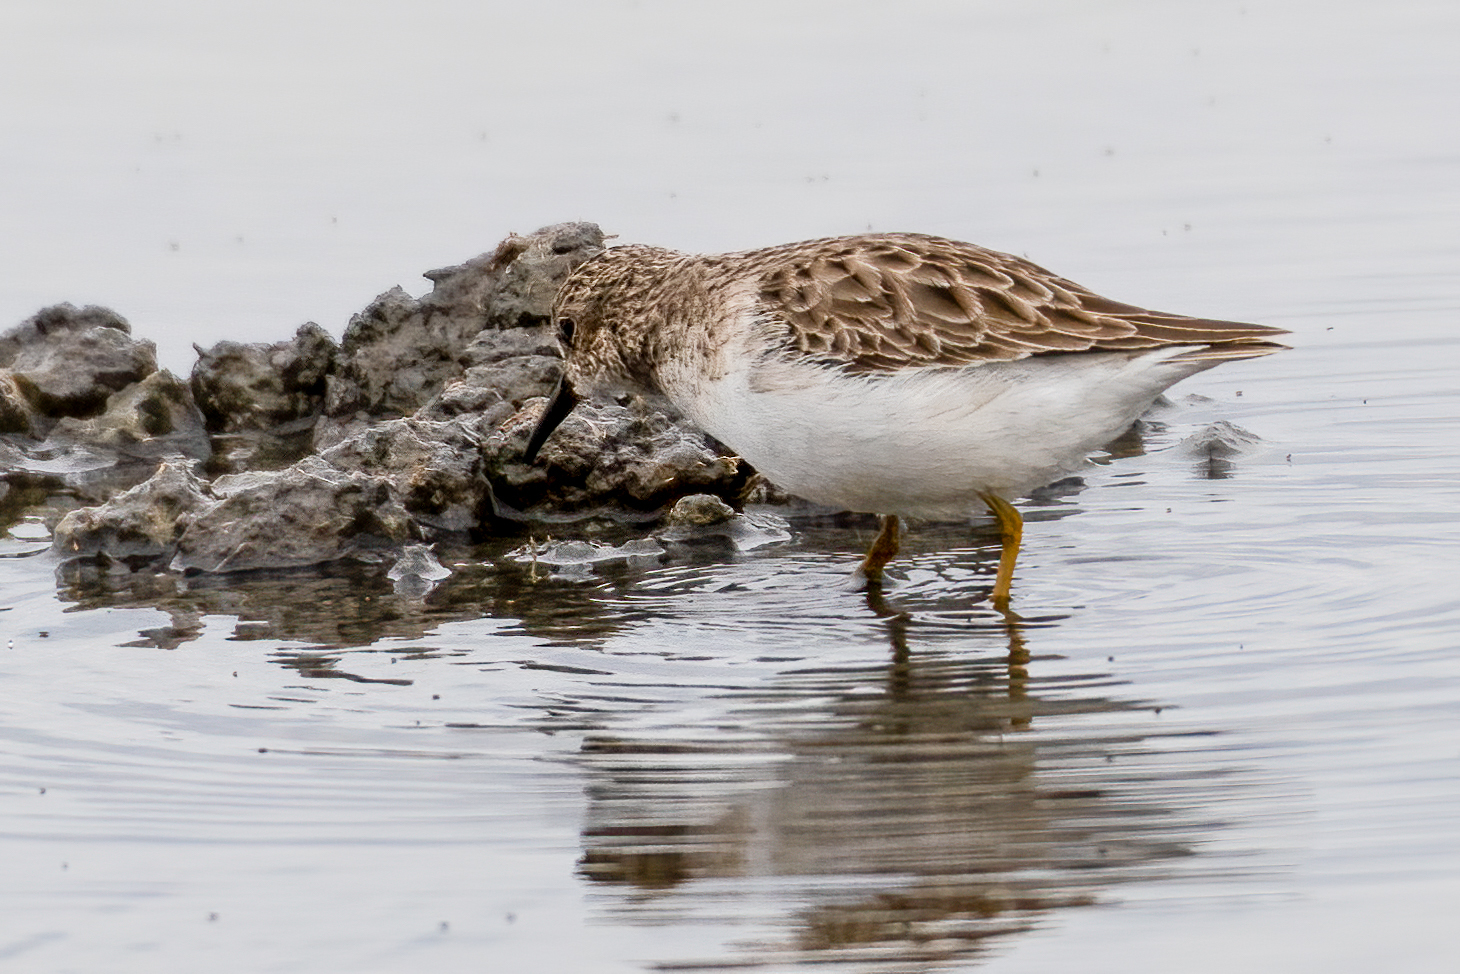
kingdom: Animalia
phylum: Chordata
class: Aves
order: Charadriiformes
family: Scolopacidae
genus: Calidris
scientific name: Calidris minutilla
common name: Least sandpiper
